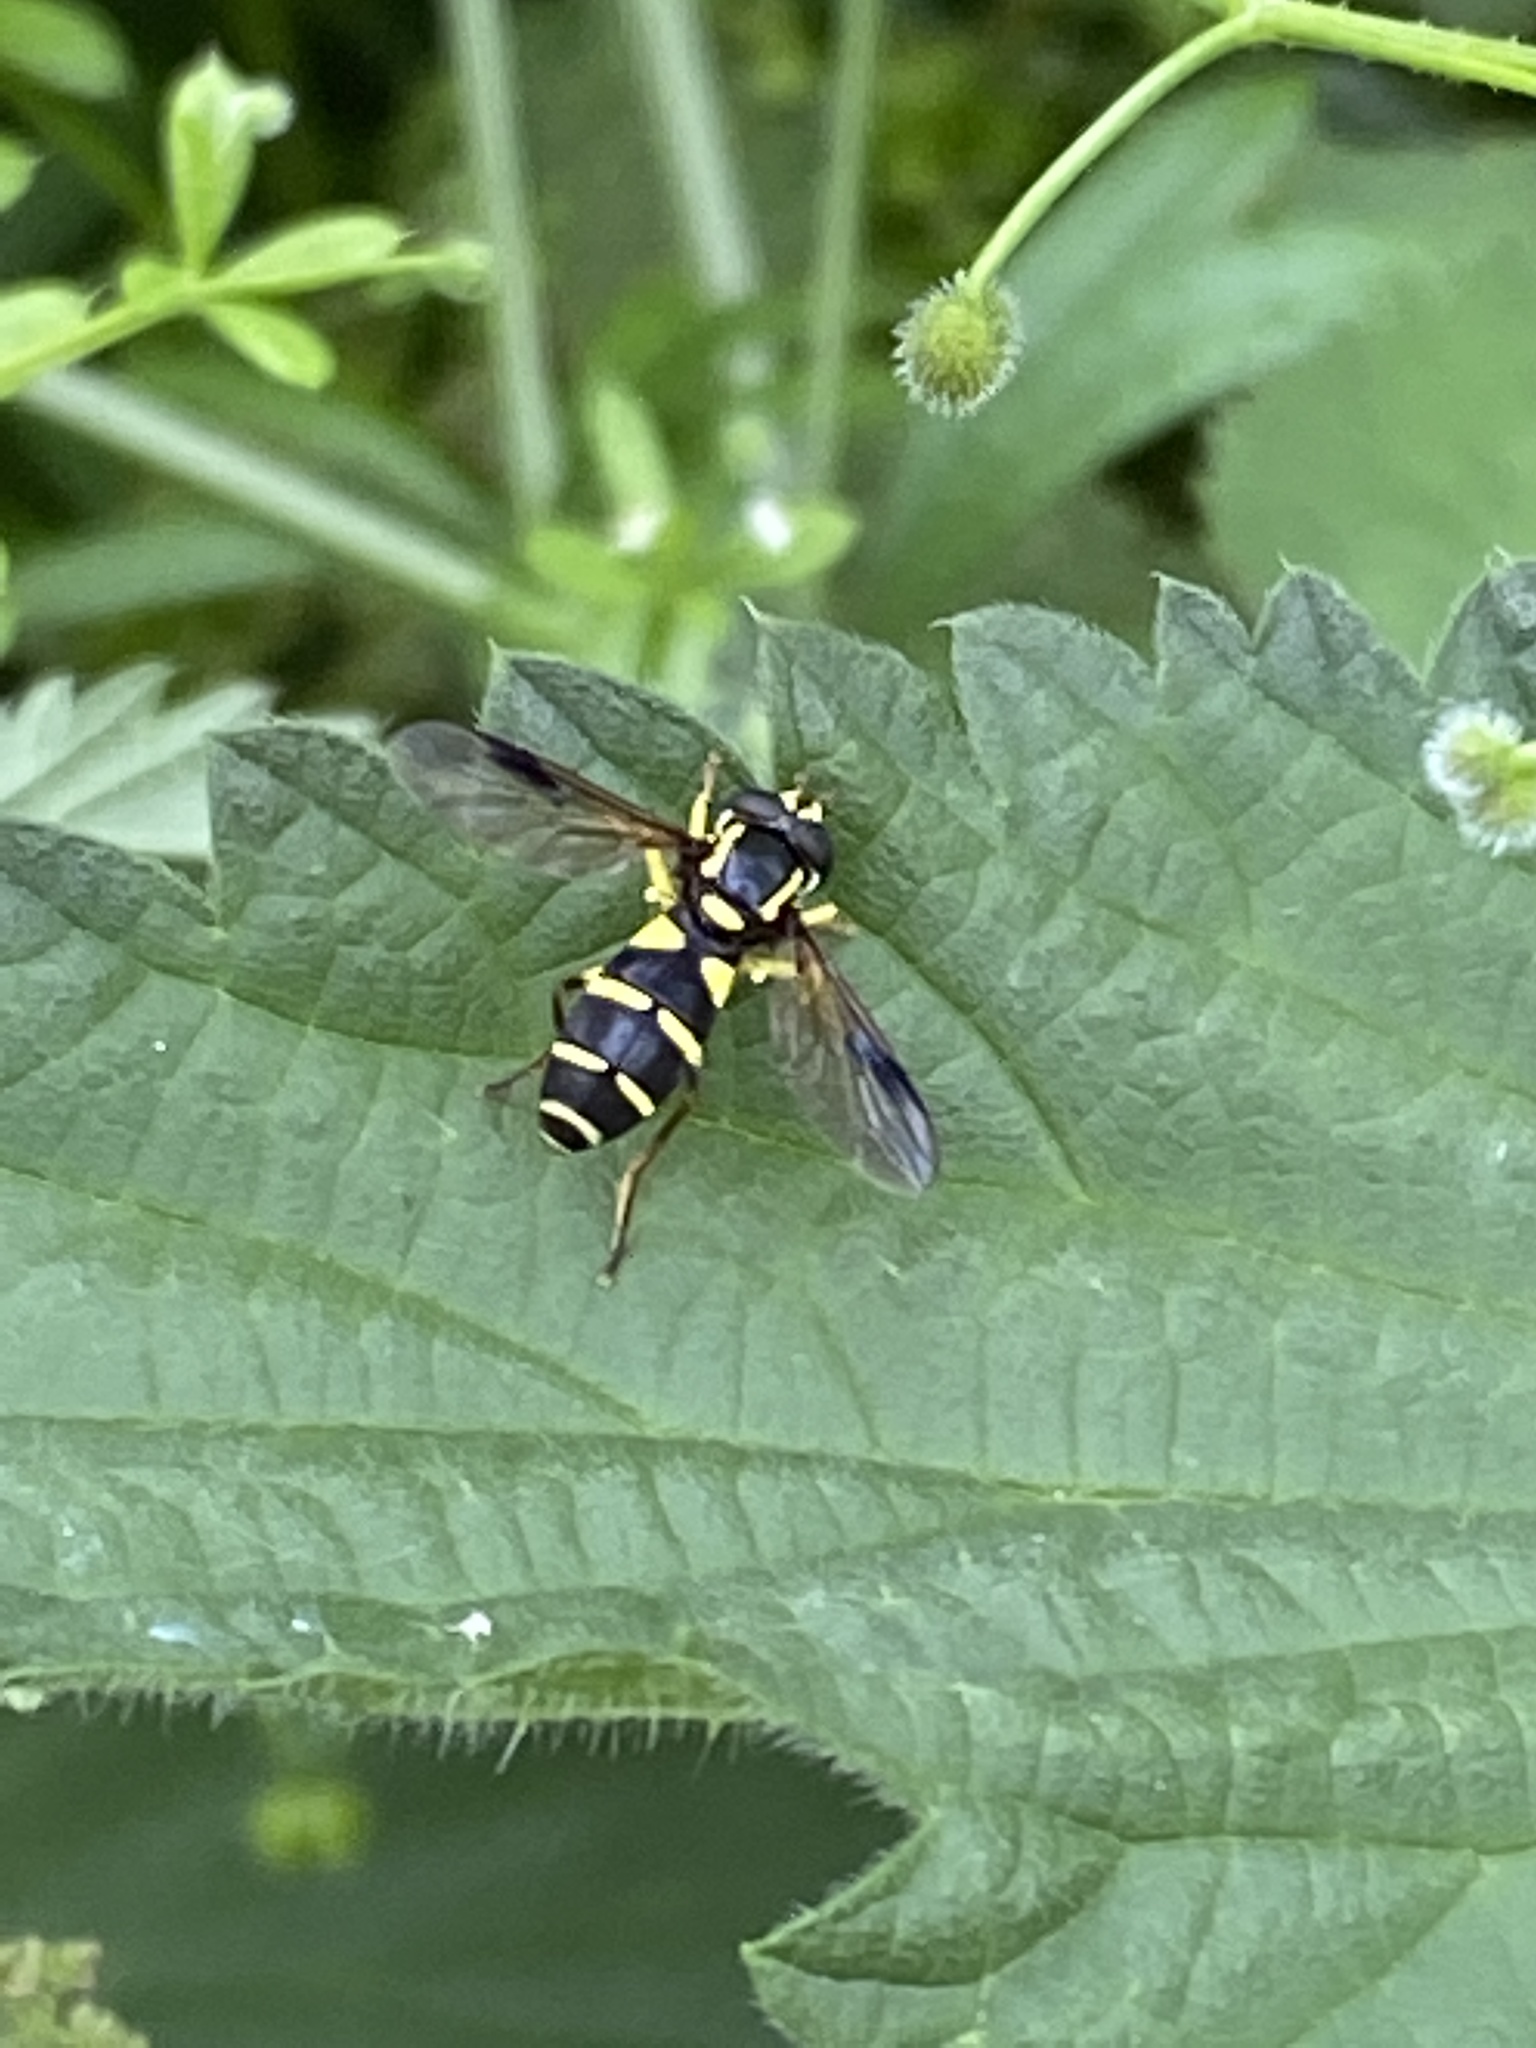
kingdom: Animalia
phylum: Arthropoda
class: Insecta
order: Diptera
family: Syrphidae
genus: Philhelius
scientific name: Philhelius pedissequum
